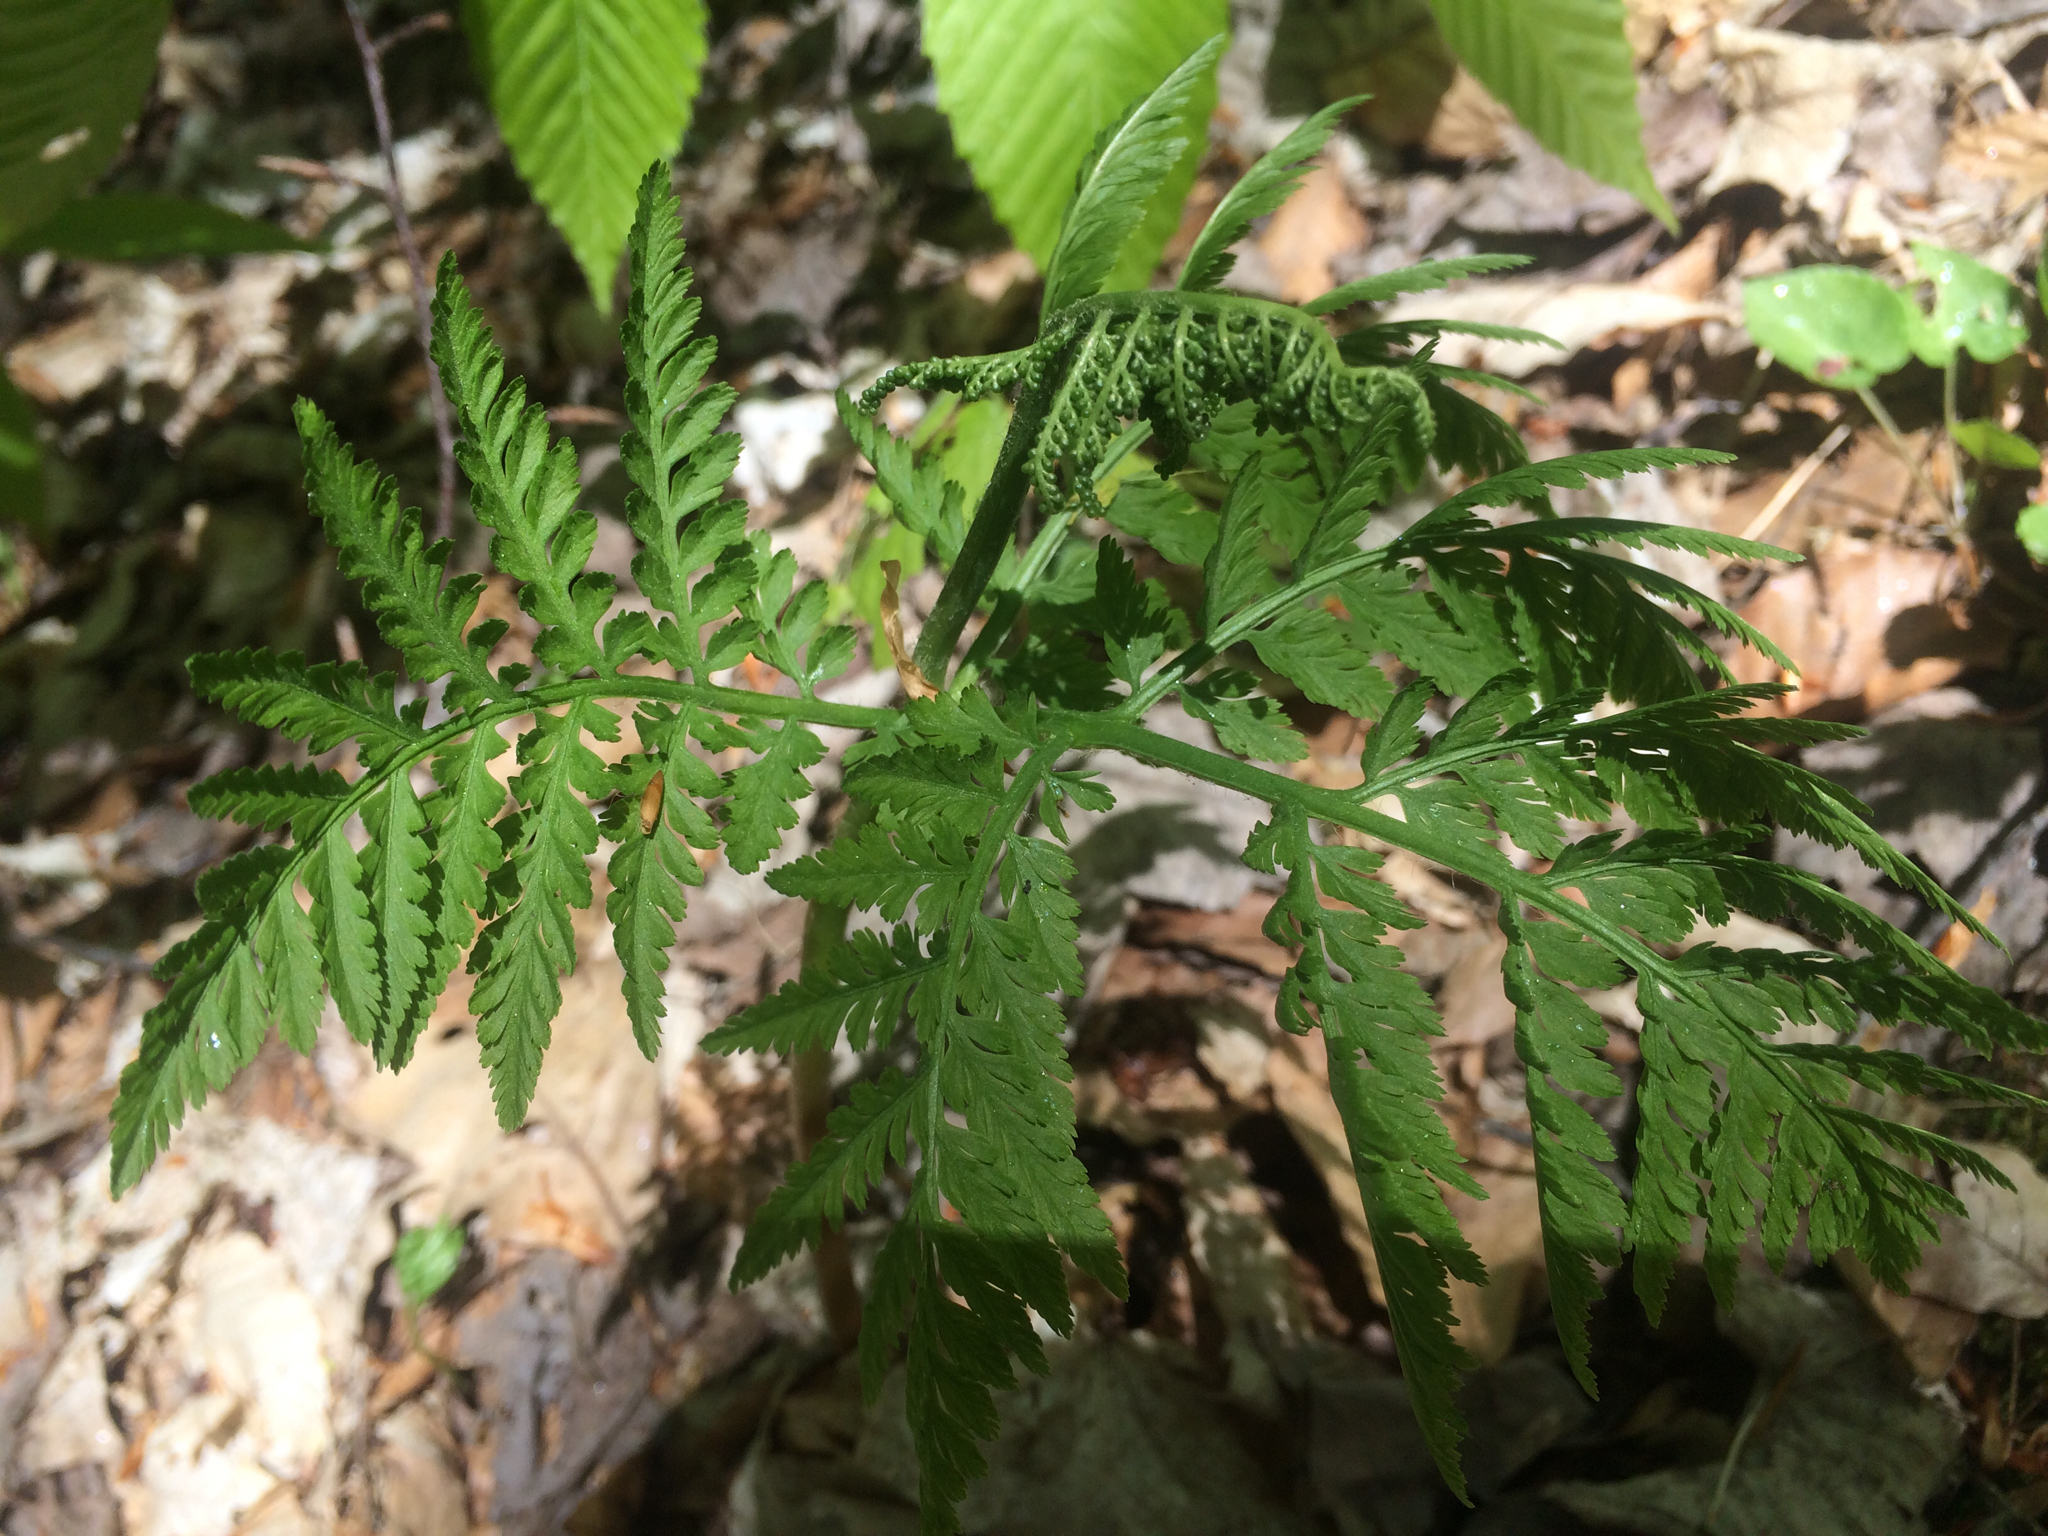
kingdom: Plantae
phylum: Tracheophyta
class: Polypodiopsida
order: Ophioglossales
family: Ophioglossaceae
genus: Botrypus
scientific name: Botrypus virginianus
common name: Common grapefern
